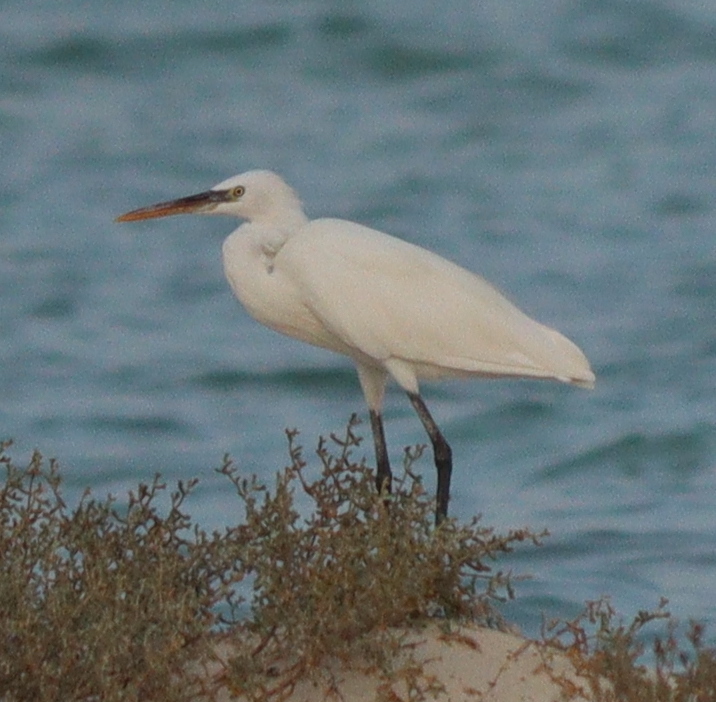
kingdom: Animalia
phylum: Chordata
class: Aves
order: Pelecaniformes
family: Ardeidae
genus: Egretta
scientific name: Egretta gularis
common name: Western reef-heron
